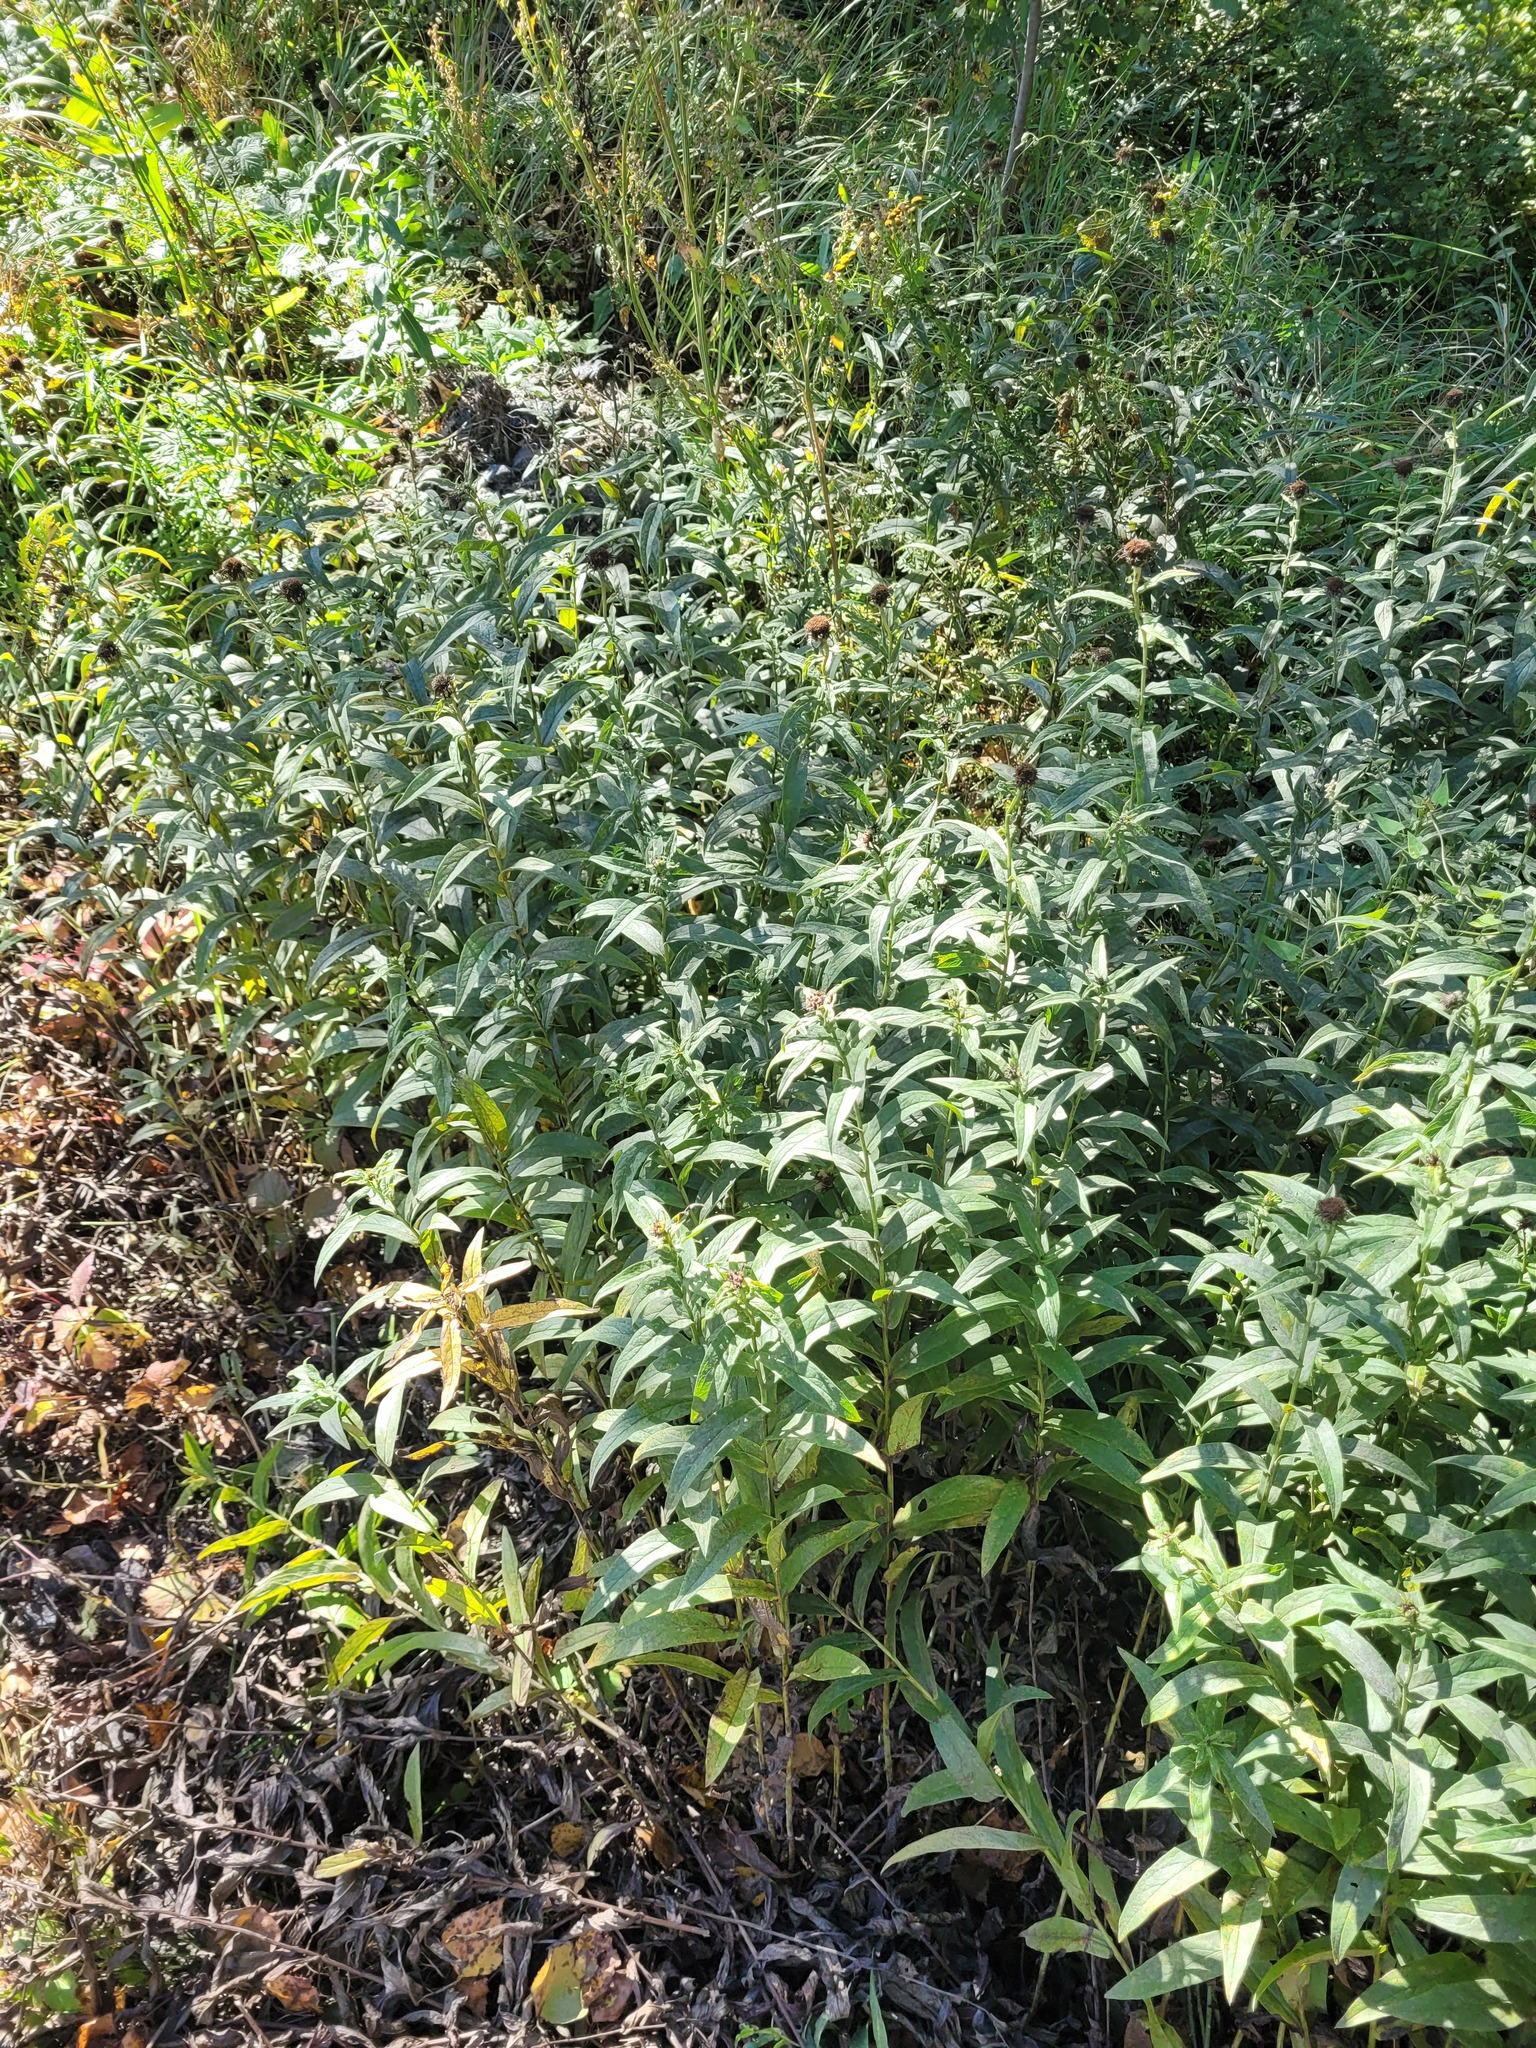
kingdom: Plantae
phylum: Tracheophyta
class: Magnoliopsida
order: Asterales
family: Asteraceae
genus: Pentanema
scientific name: Pentanema salicinum
